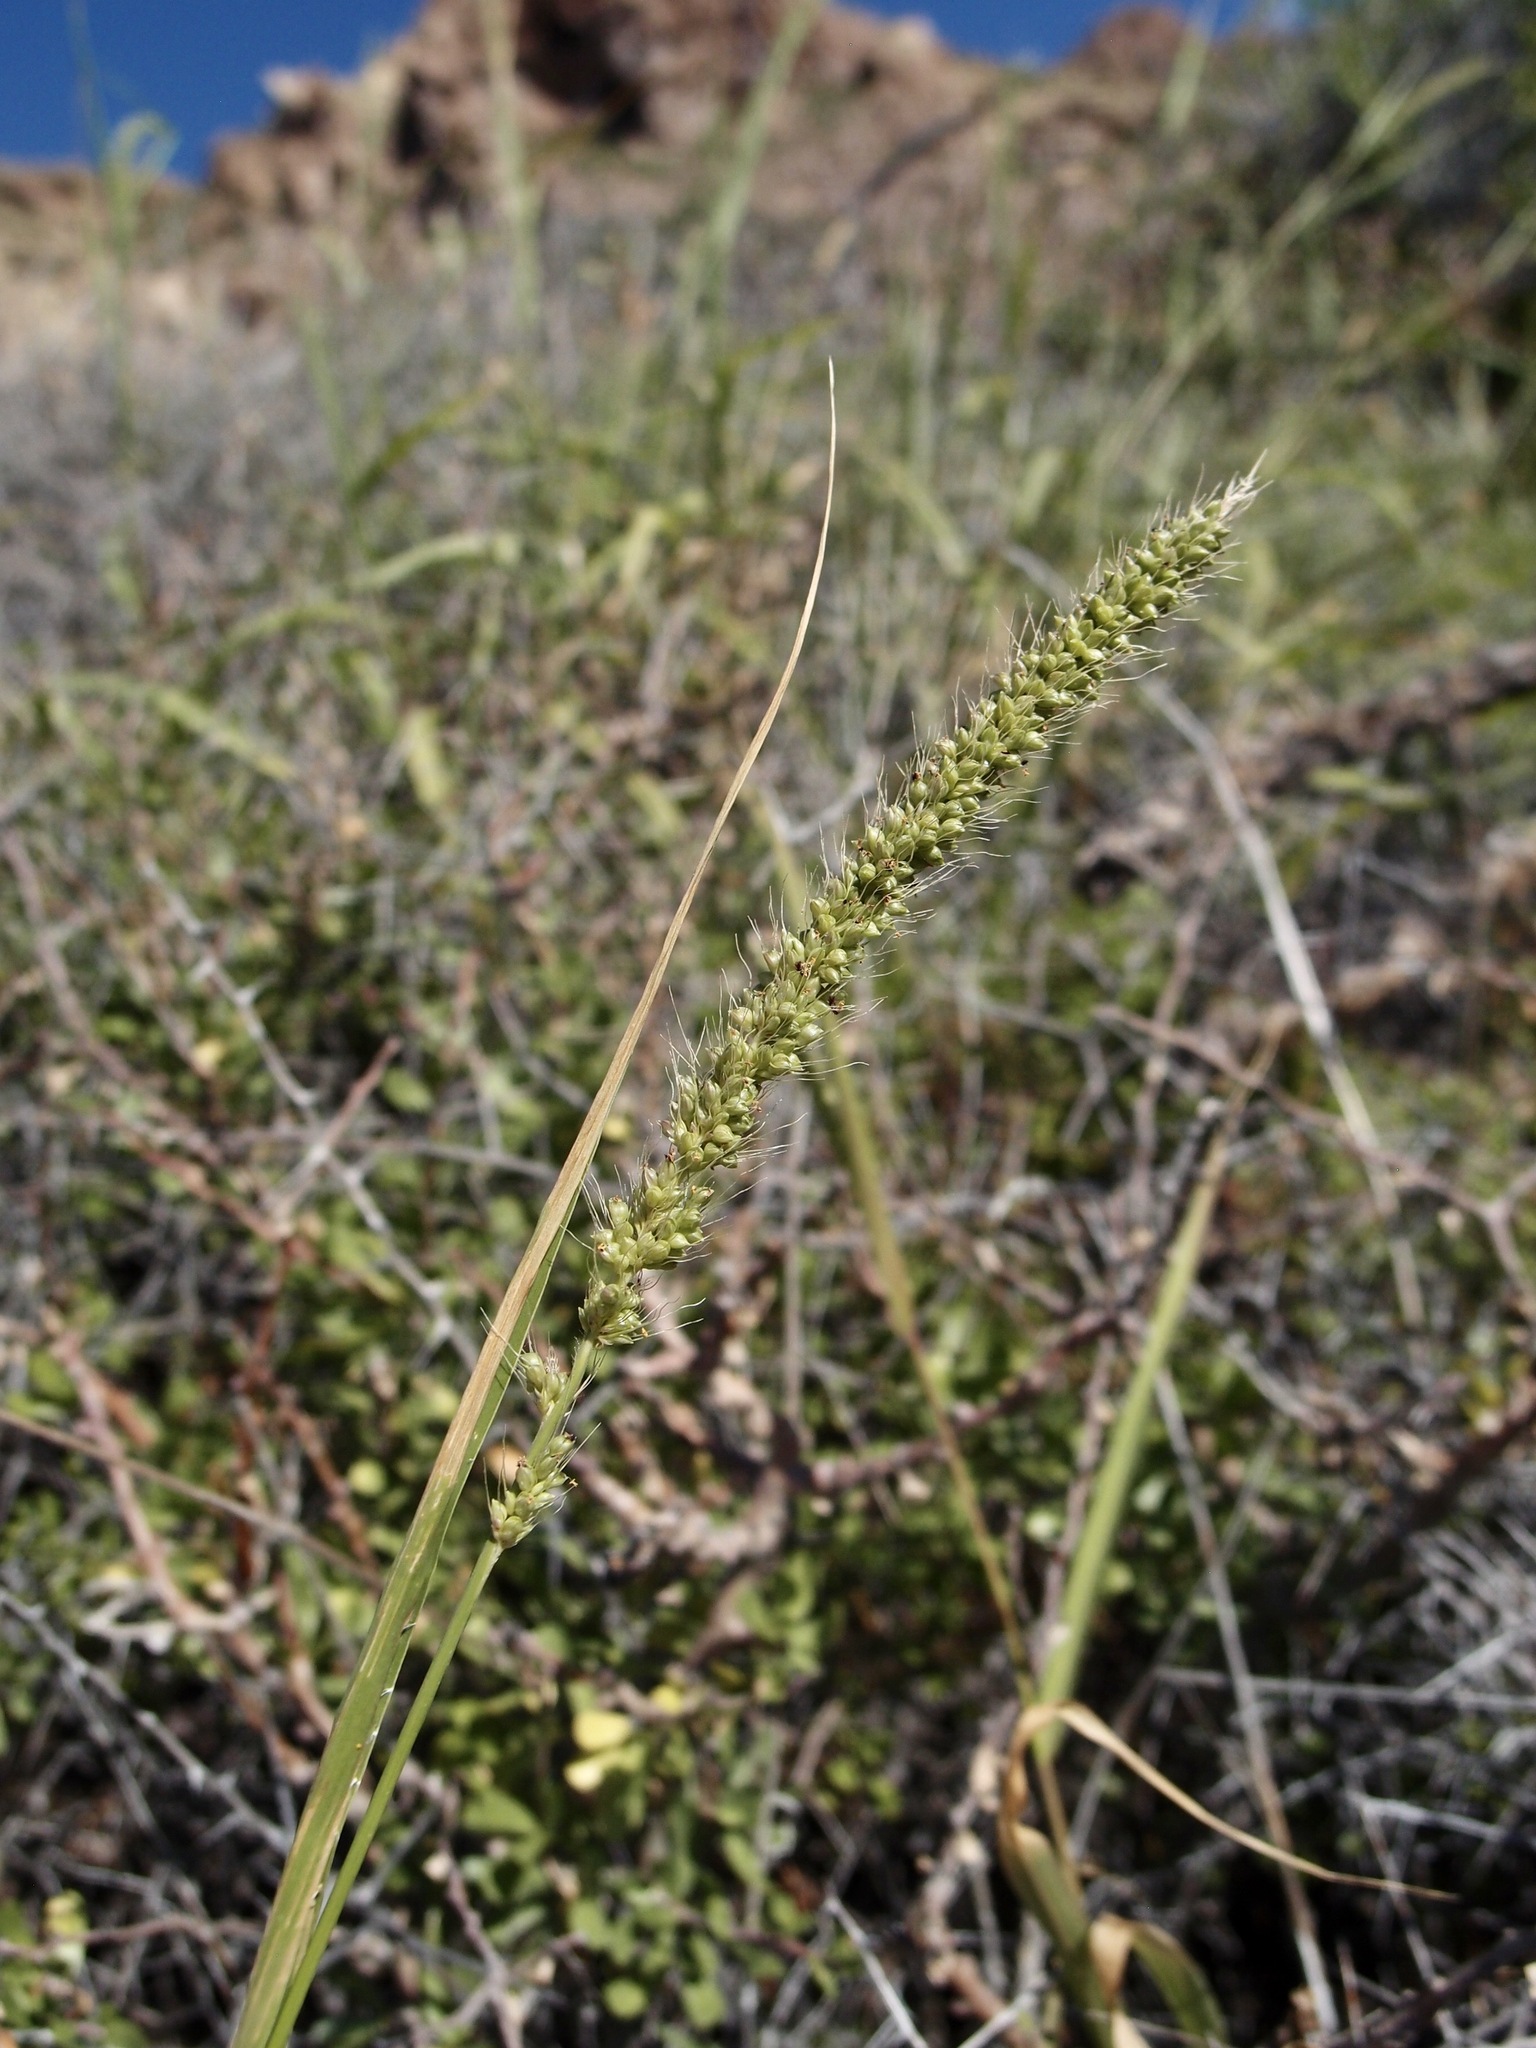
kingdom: Plantae
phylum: Tracheophyta
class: Liliopsida
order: Poales
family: Poaceae
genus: Setaria
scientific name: Setaria leucopila
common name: Plains bristle grass
